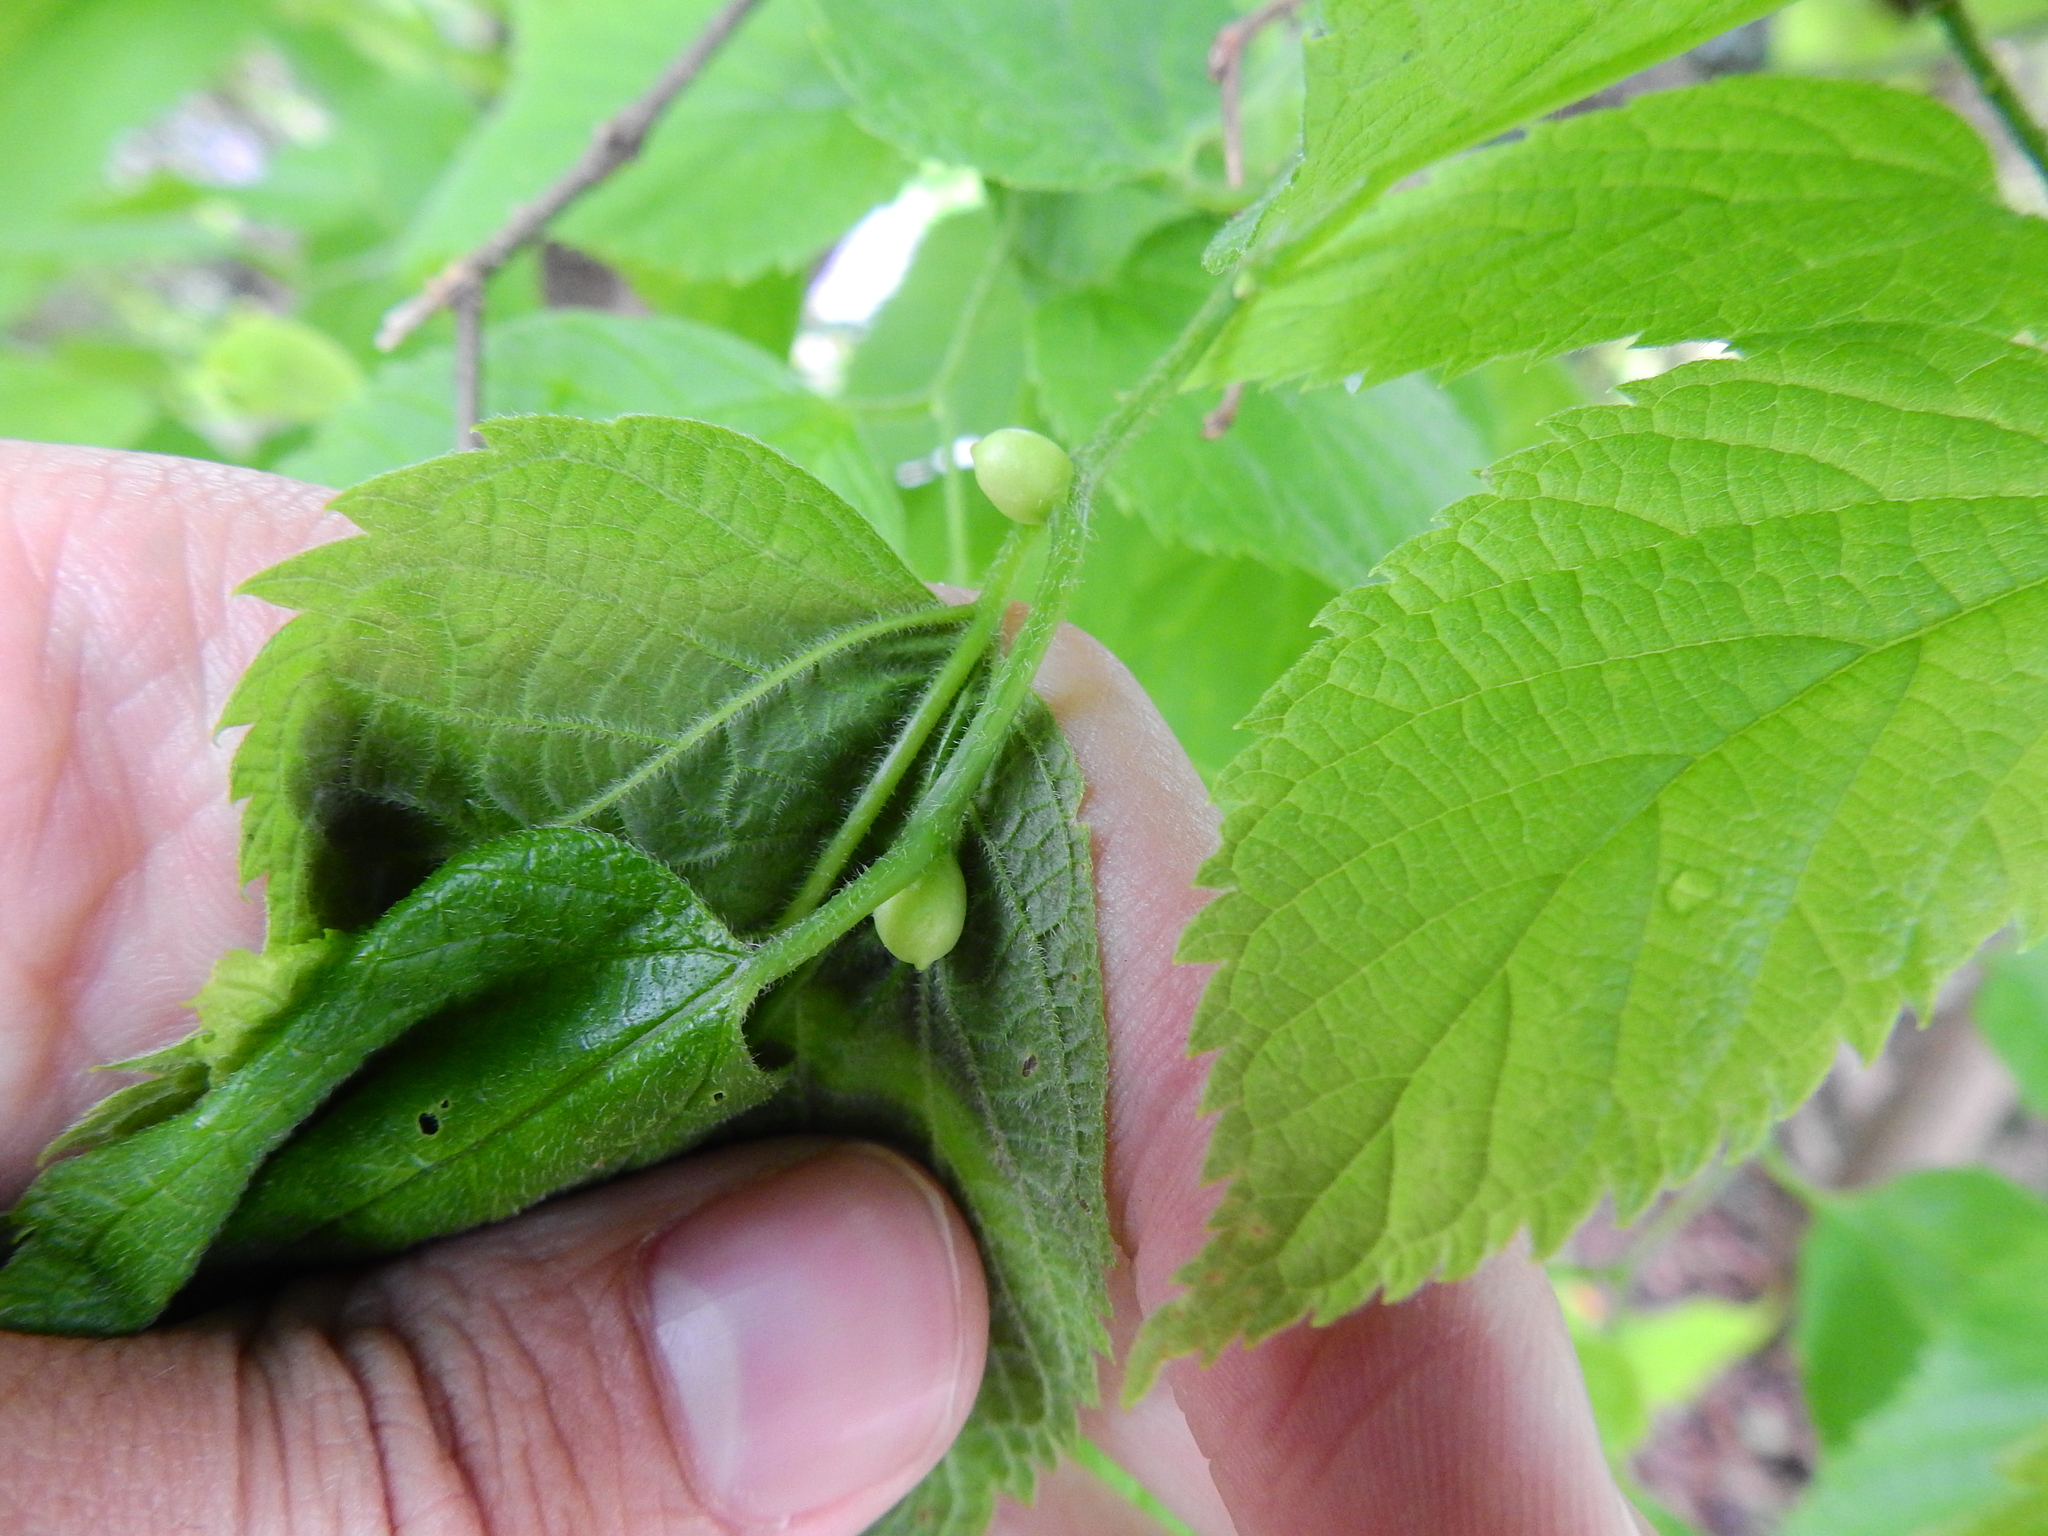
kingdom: Animalia
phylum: Arthropoda
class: Insecta
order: Diptera
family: Cecidomyiidae
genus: Celticecis
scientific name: Celticecis connata
